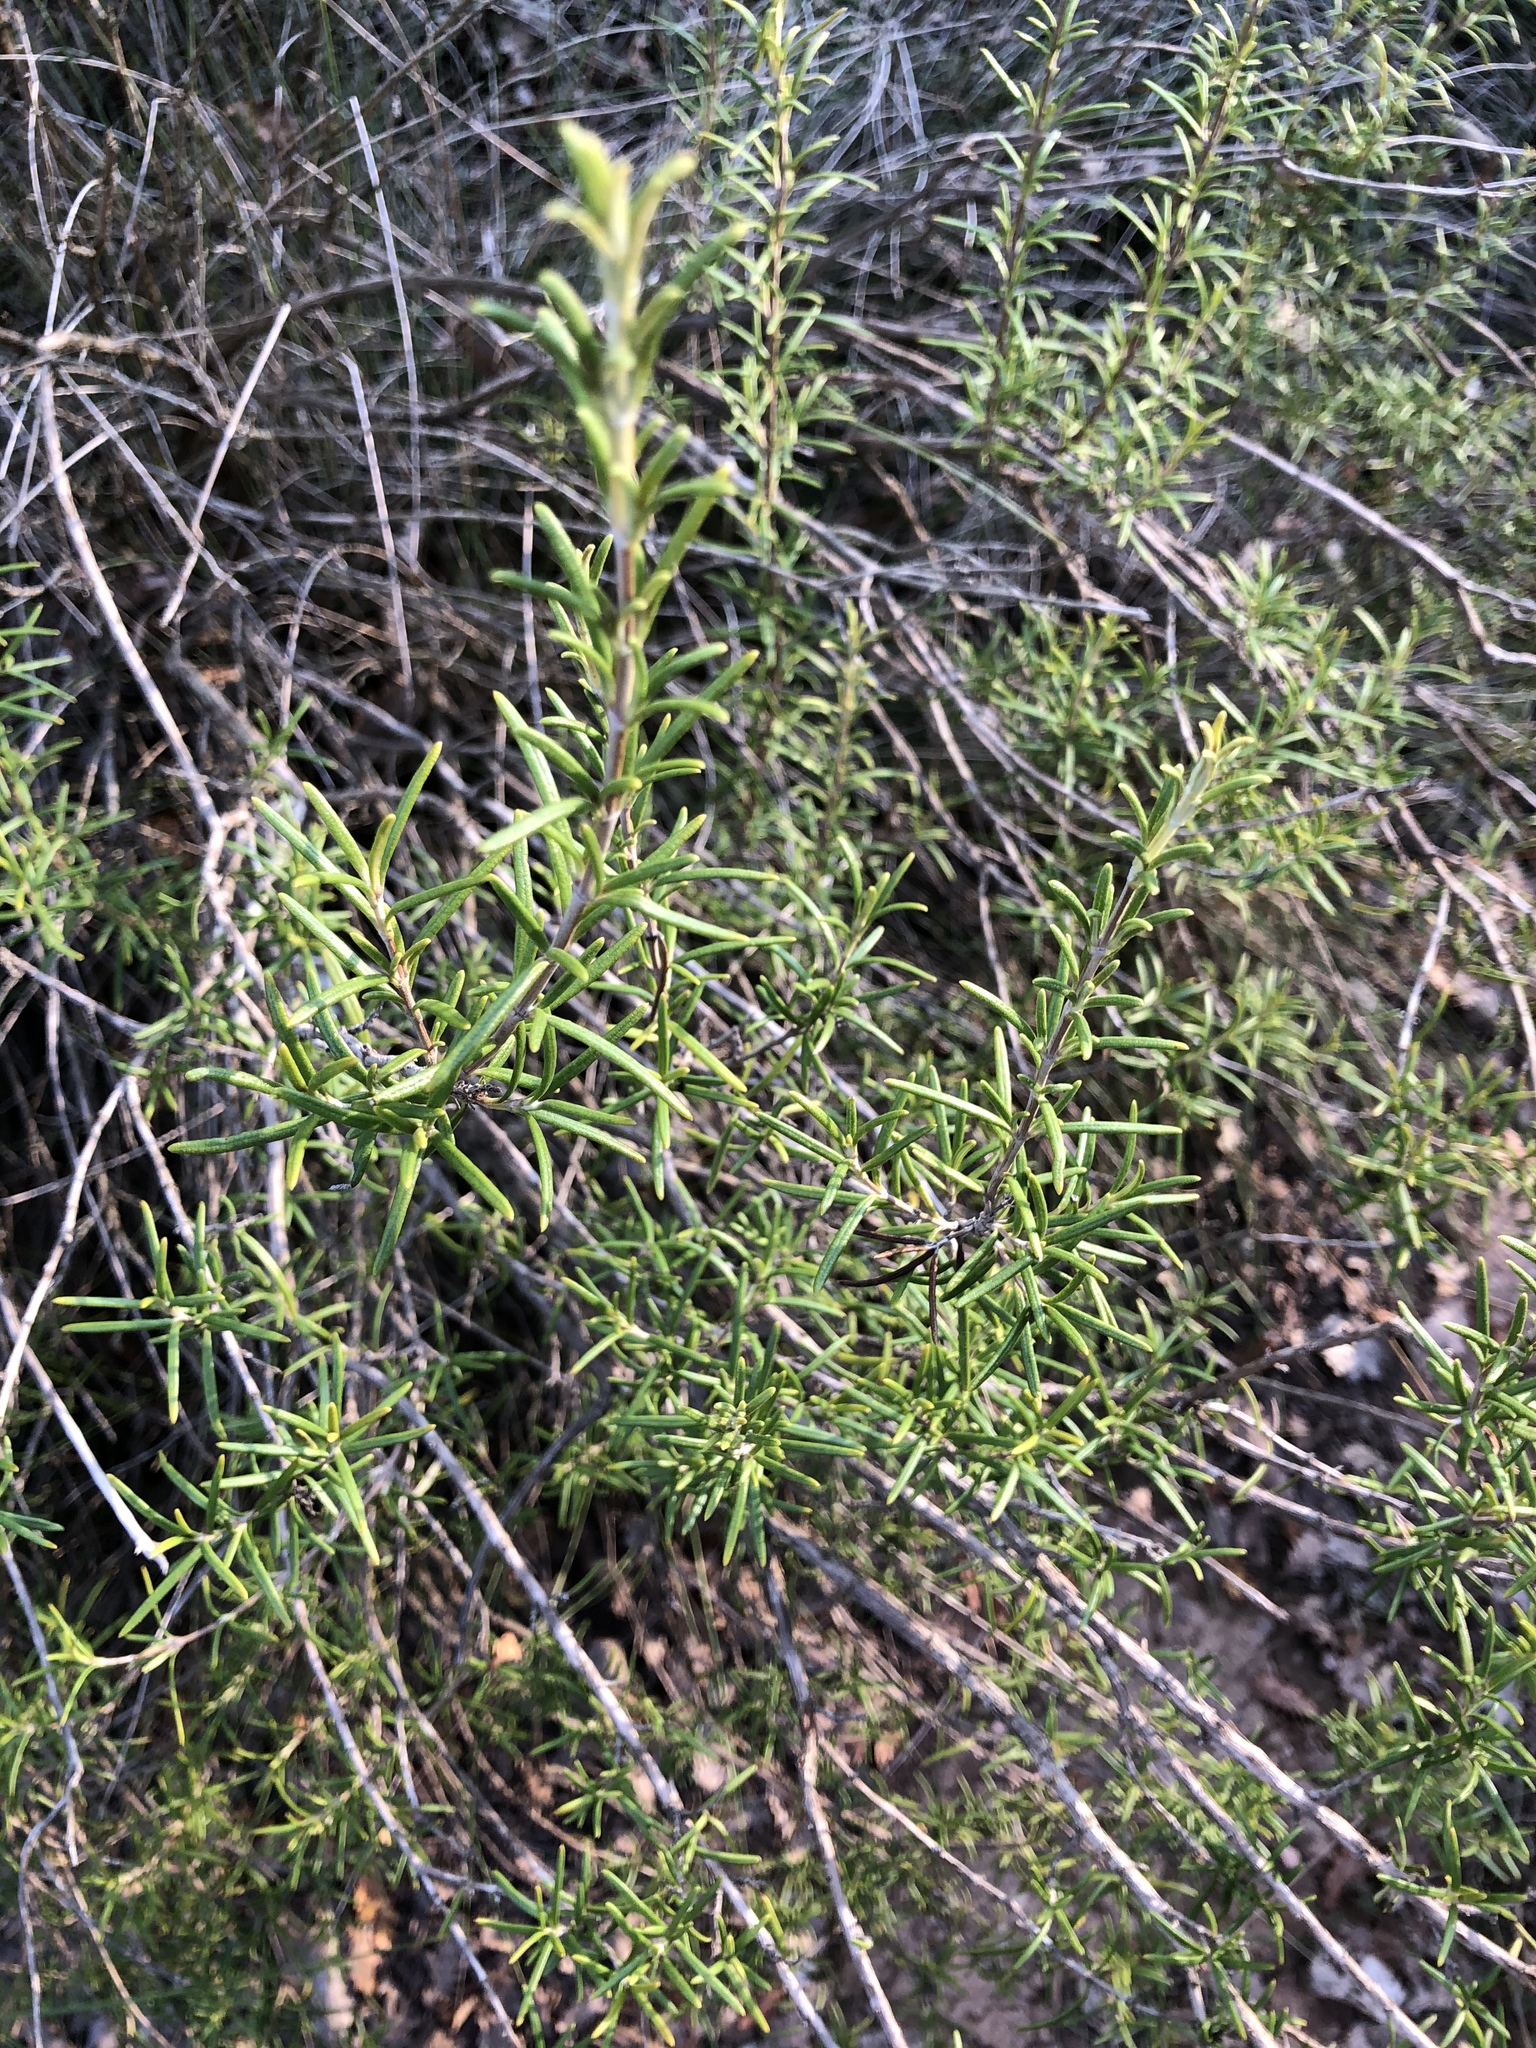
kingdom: Plantae
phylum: Tracheophyta
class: Magnoliopsida
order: Lamiales
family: Lamiaceae
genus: Salvia
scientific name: Salvia rosmarinus
